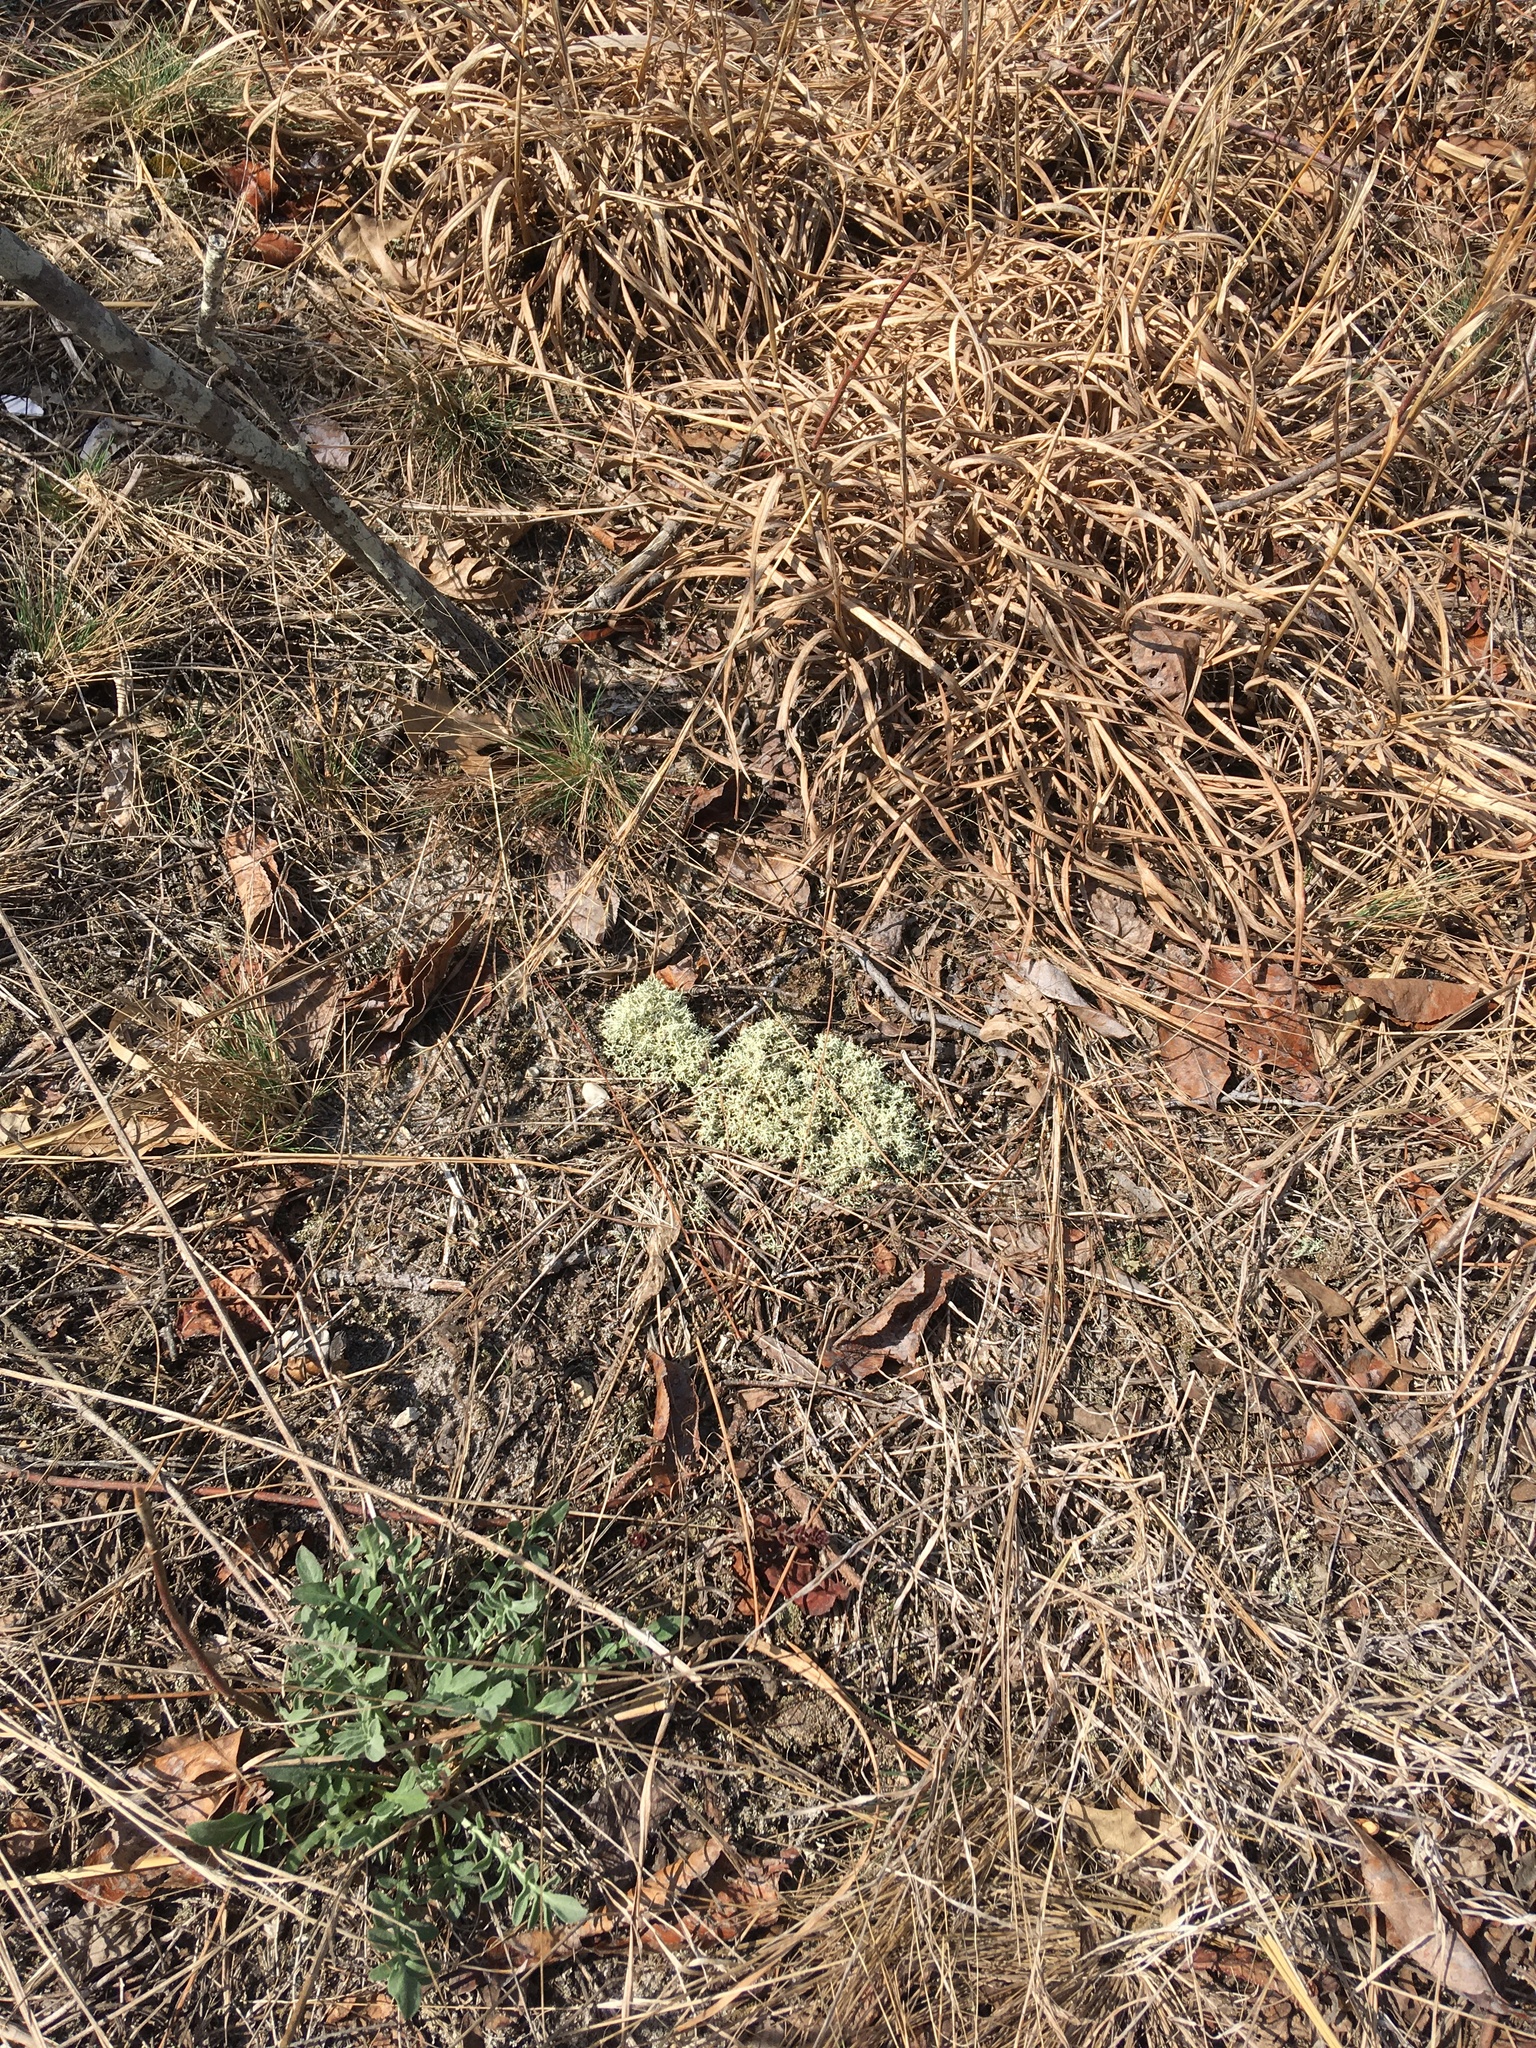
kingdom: Fungi
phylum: Ascomycota
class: Lecanoromycetes
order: Lecanorales
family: Cladoniaceae
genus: Cladonia
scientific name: Cladonia subtenuis
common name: Dixie reindeer lichen
